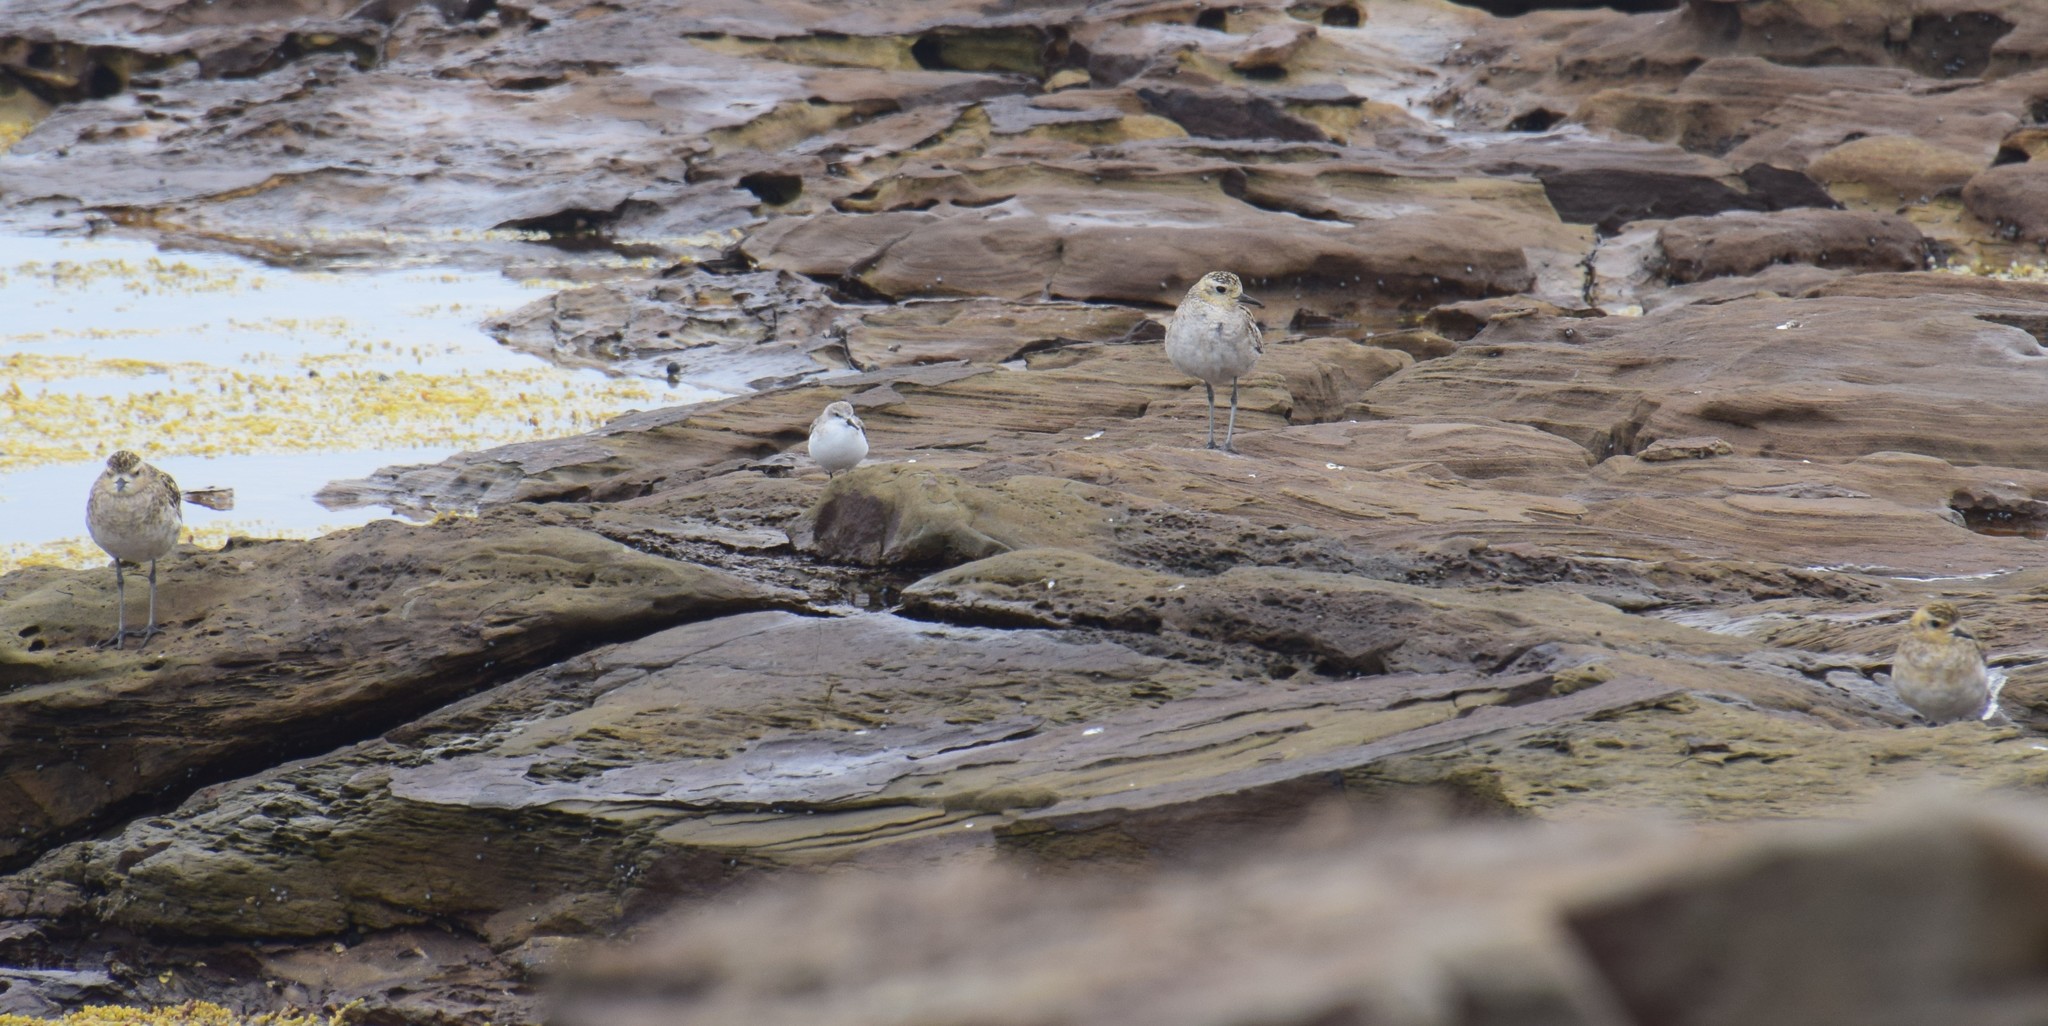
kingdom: Animalia
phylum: Chordata
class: Aves
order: Charadriiformes
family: Charadriidae
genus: Pluvialis
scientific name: Pluvialis fulva
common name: Pacific golden plover
